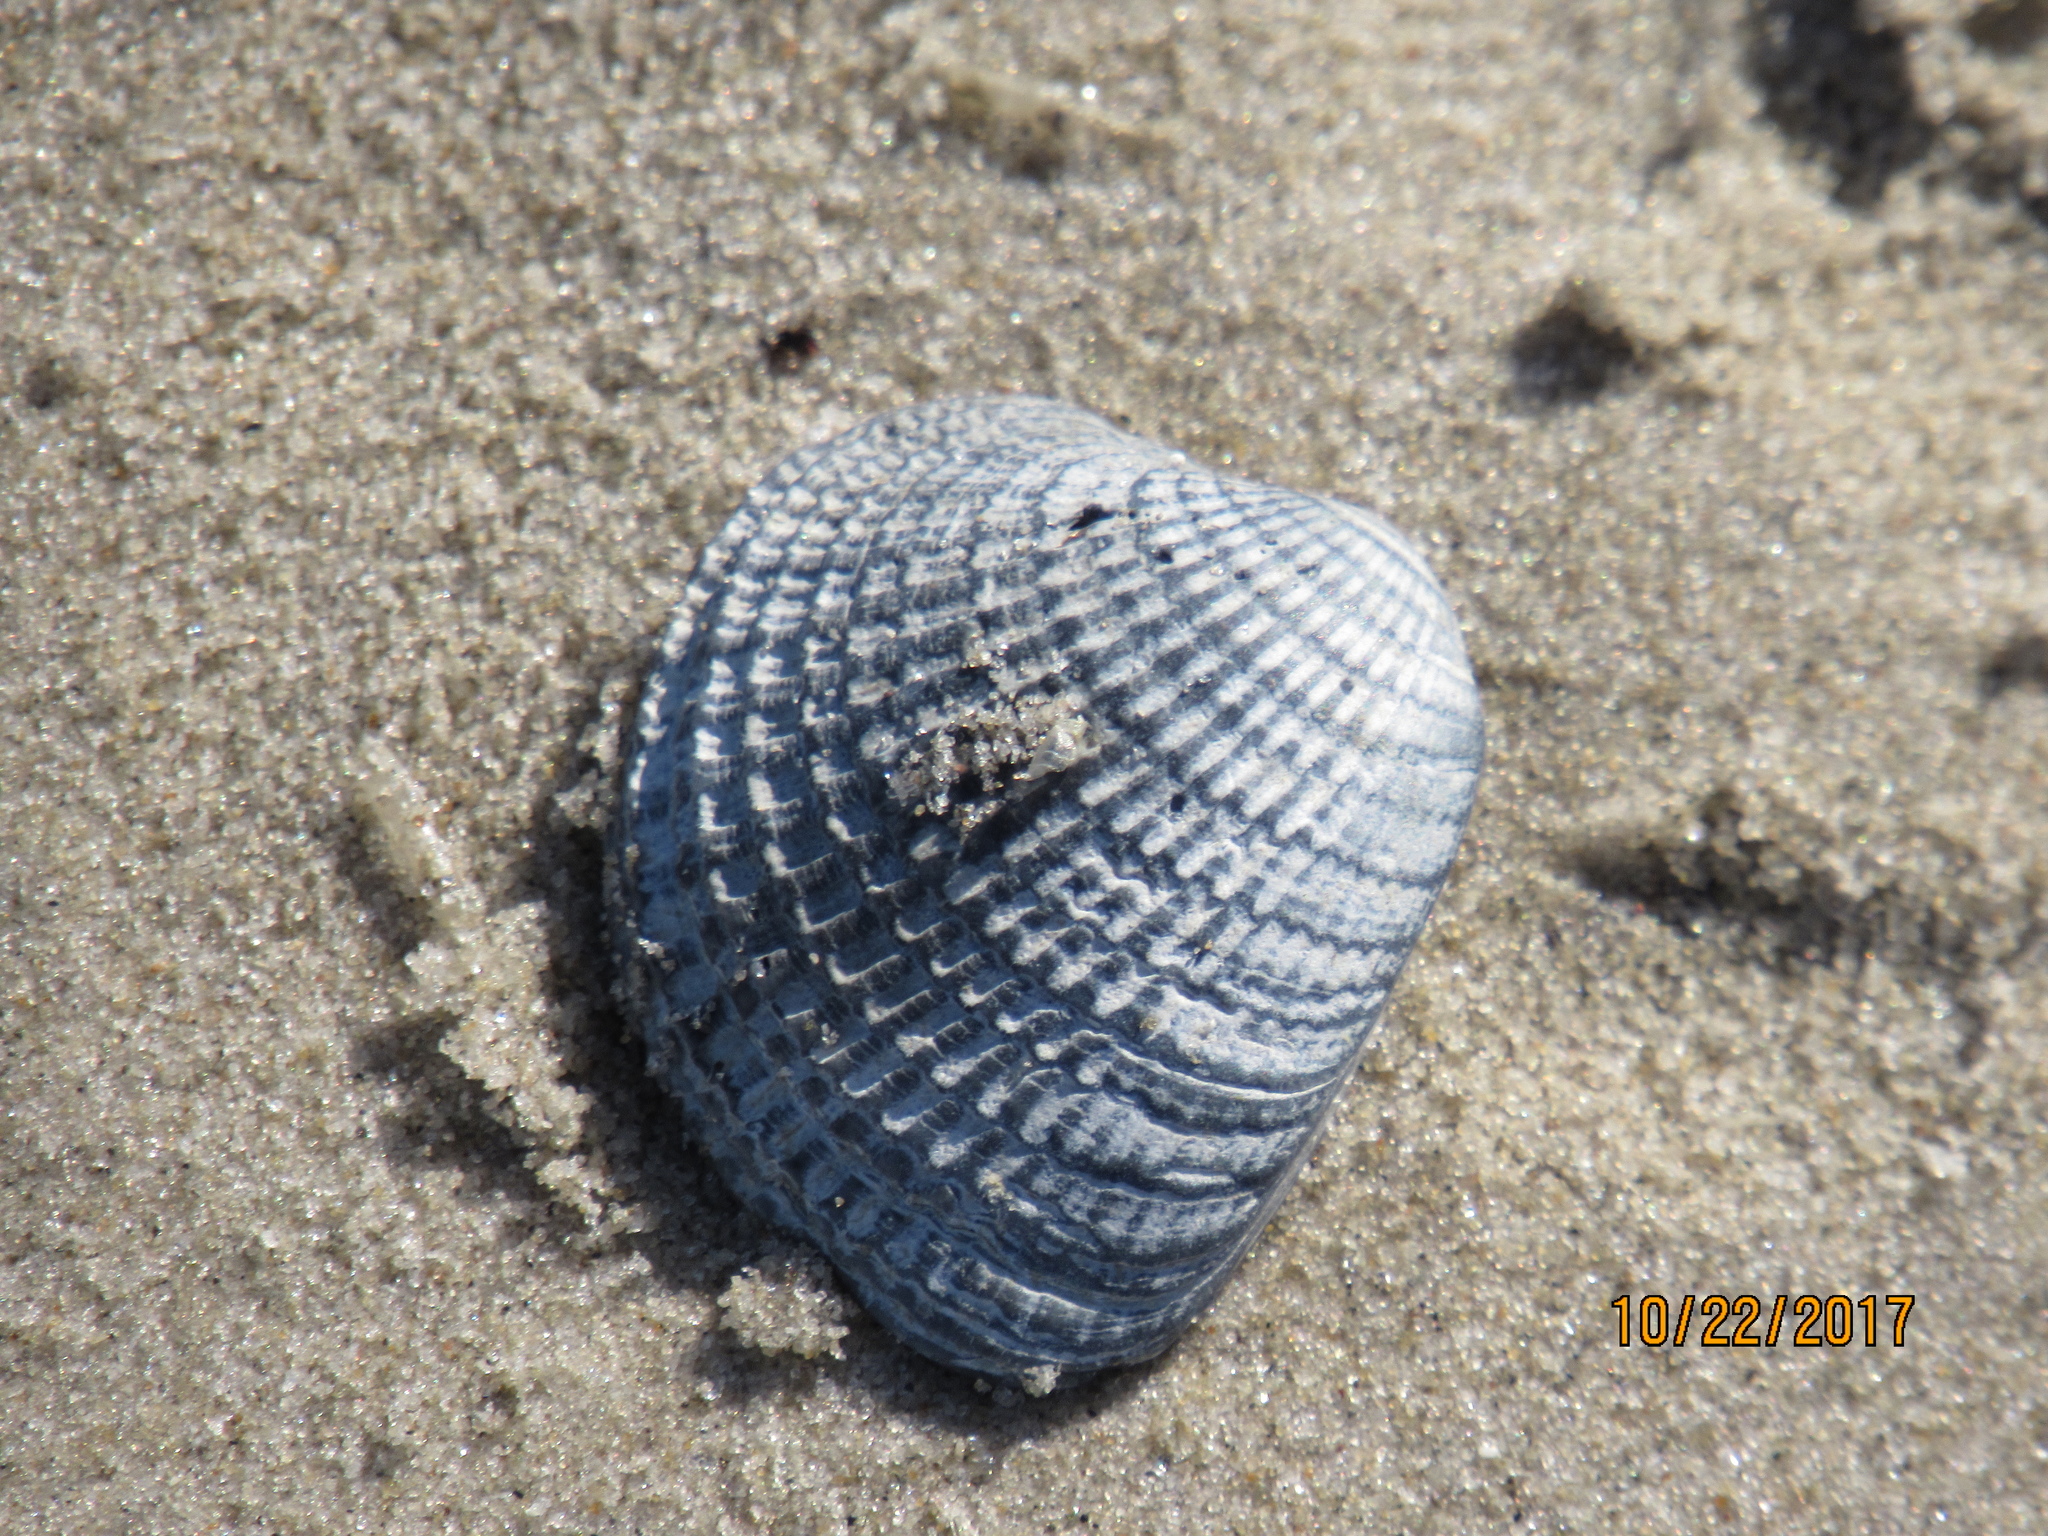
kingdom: Animalia
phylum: Mollusca
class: Bivalvia
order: Venerida
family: Veneridae
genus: Chione
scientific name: Chione elevata
